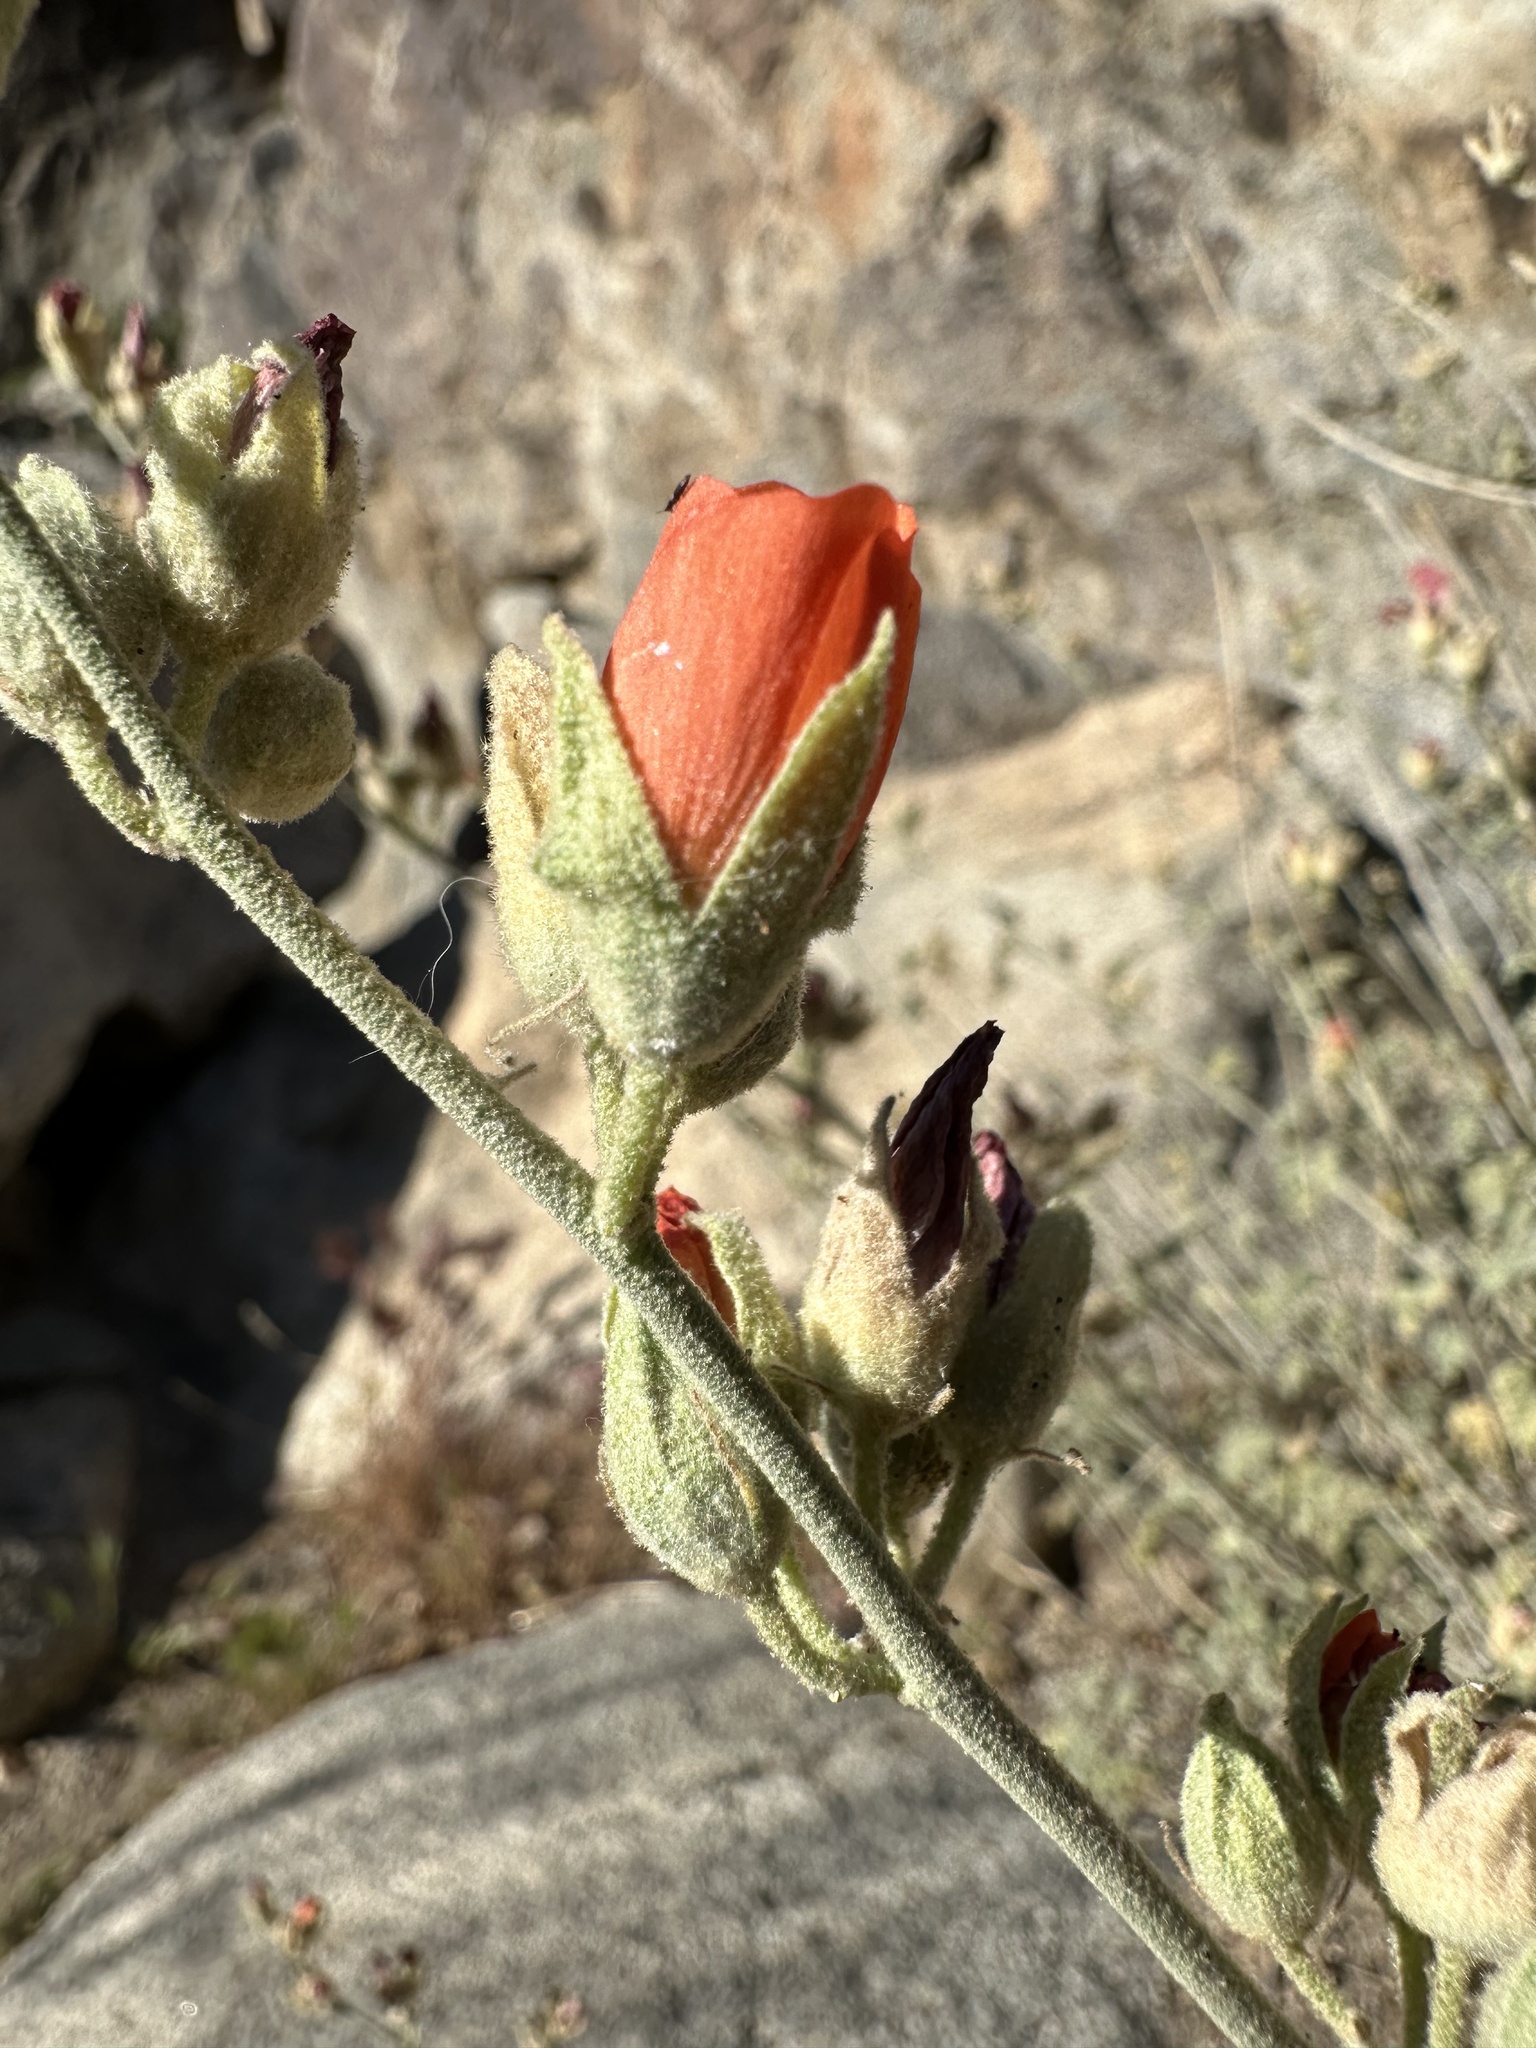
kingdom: Plantae
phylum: Tracheophyta
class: Magnoliopsida
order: Malvales
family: Malvaceae
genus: Sphaeralcea
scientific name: Sphaeralcea ambigua
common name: Apricot globe-mallow
